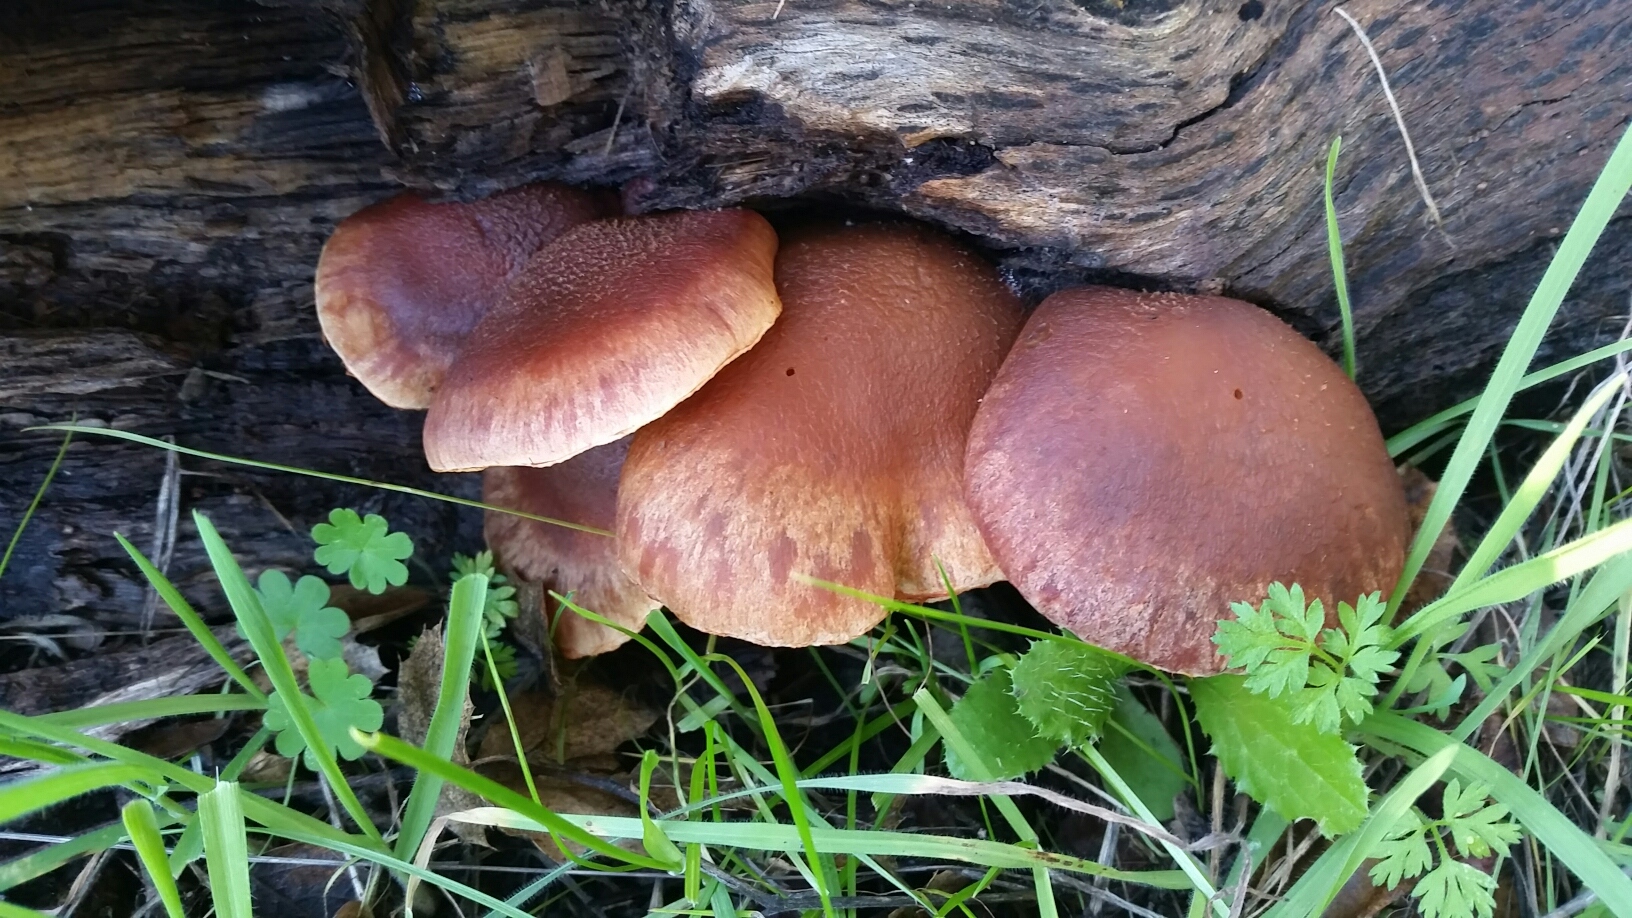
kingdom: Fungi
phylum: Basidiomycota
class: Agaricomycetes
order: Agaricales
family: Hymenogastraceae
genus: Gymnopilus
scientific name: Gymnopilus luteofolius
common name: Yellow-gilled gymnopilus
